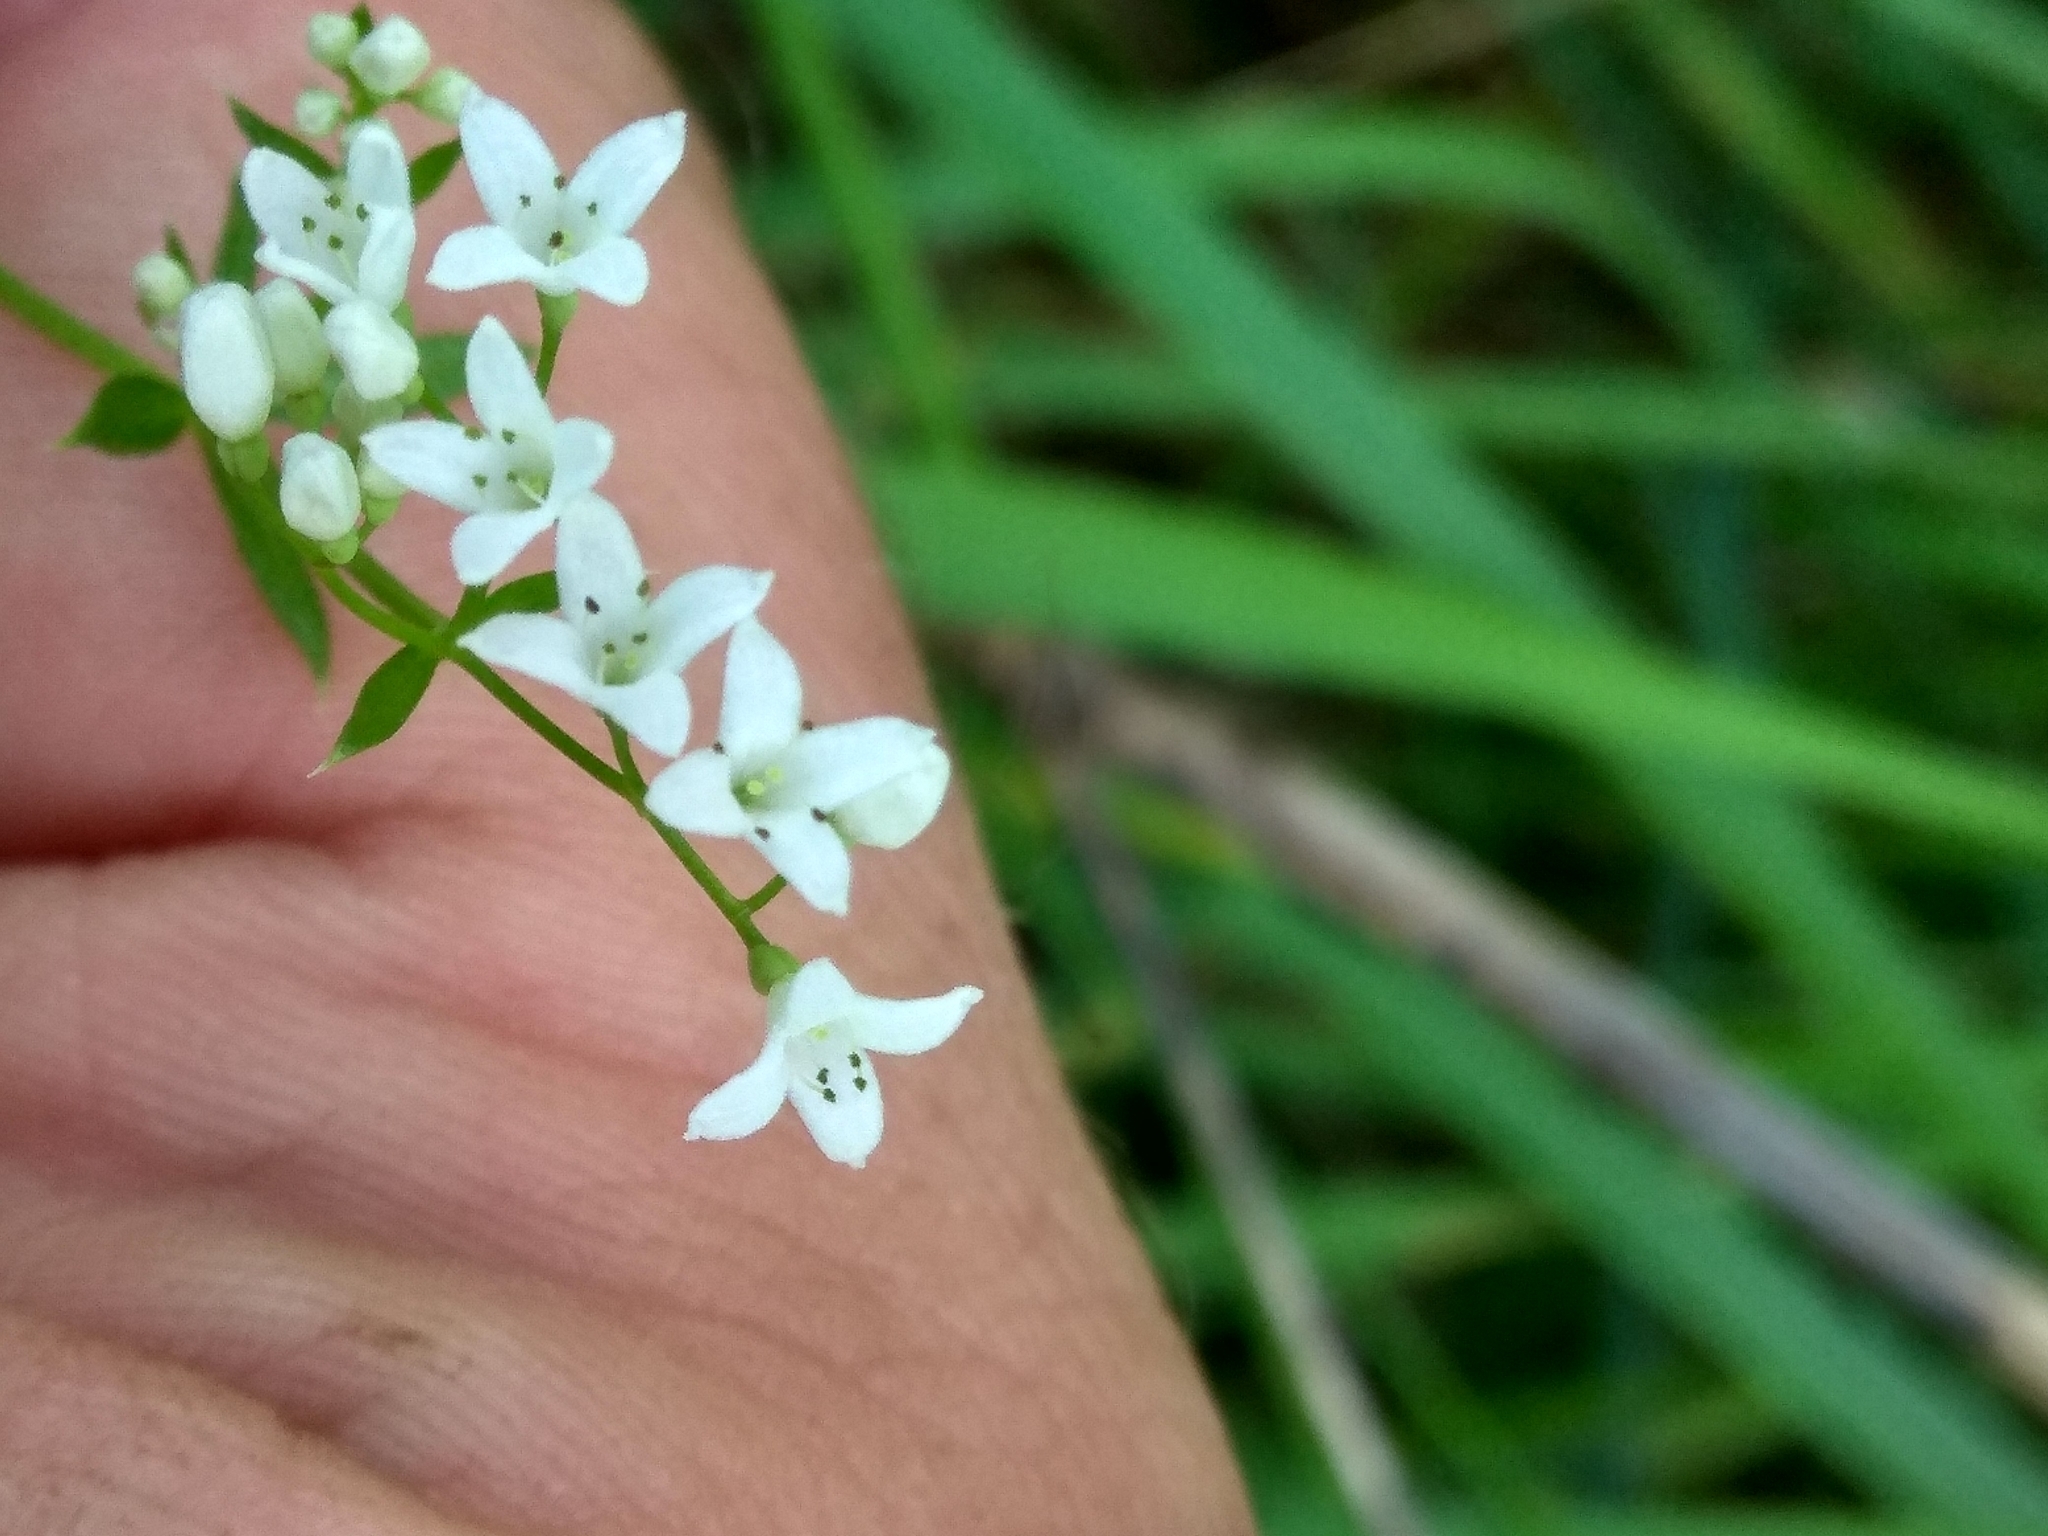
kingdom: Plantae
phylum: Tracheophyta
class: Magnoliopsida
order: Gentianales
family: Rubiaceae
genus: Galium
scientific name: Galium rivale
